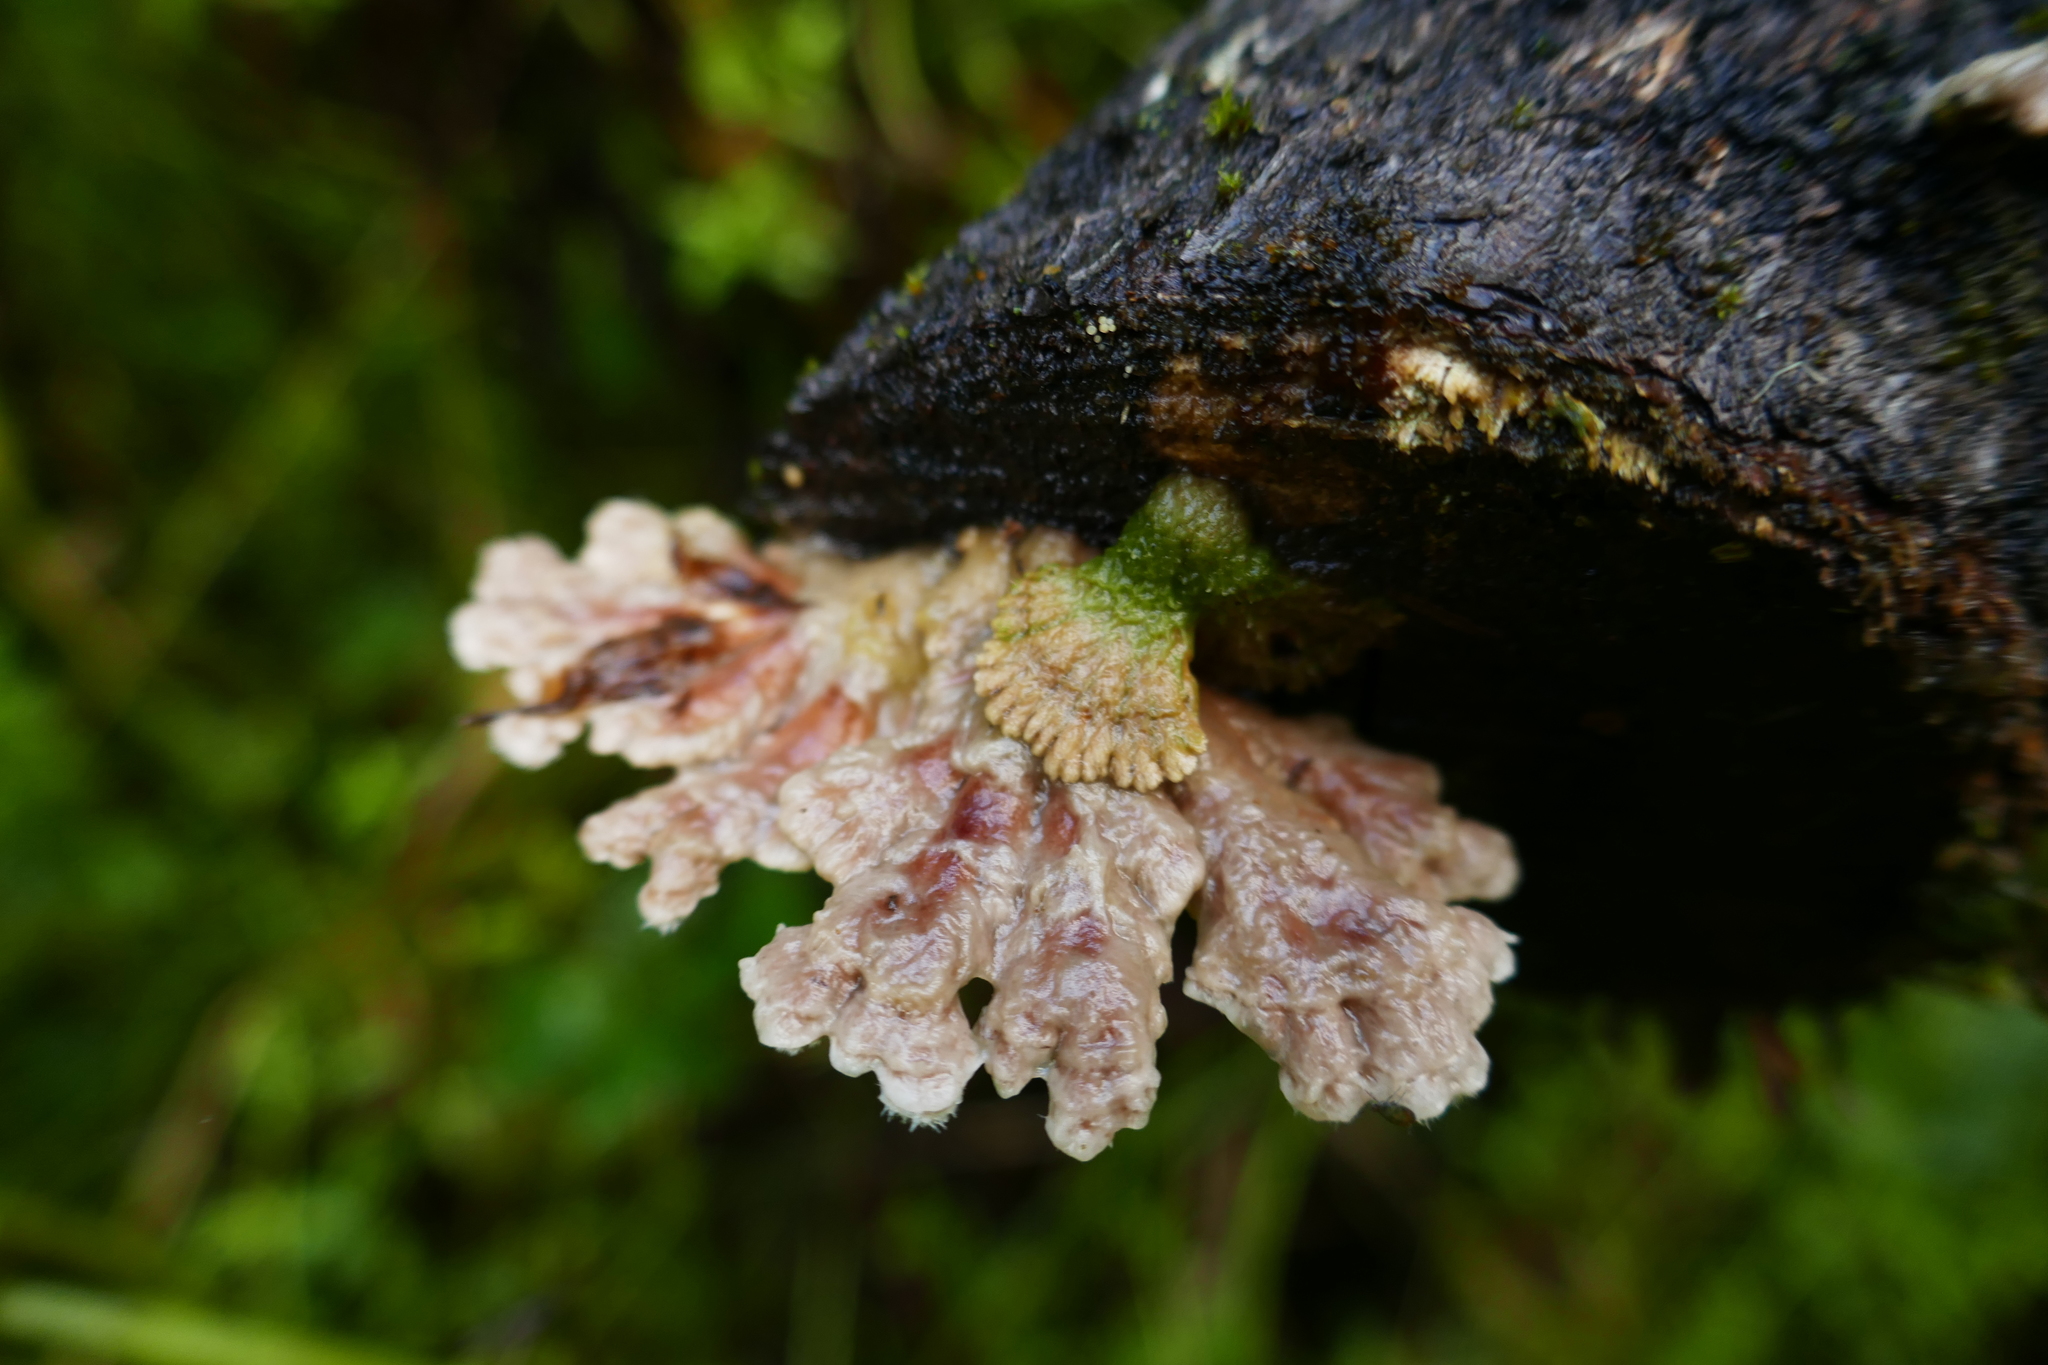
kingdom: Fungi
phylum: Basidiomycota
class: Agaricomycetes
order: Agaricales
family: Schizophyllaceae
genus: Schizophyllum
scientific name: Schizophyllum commune
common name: Common porecrust
